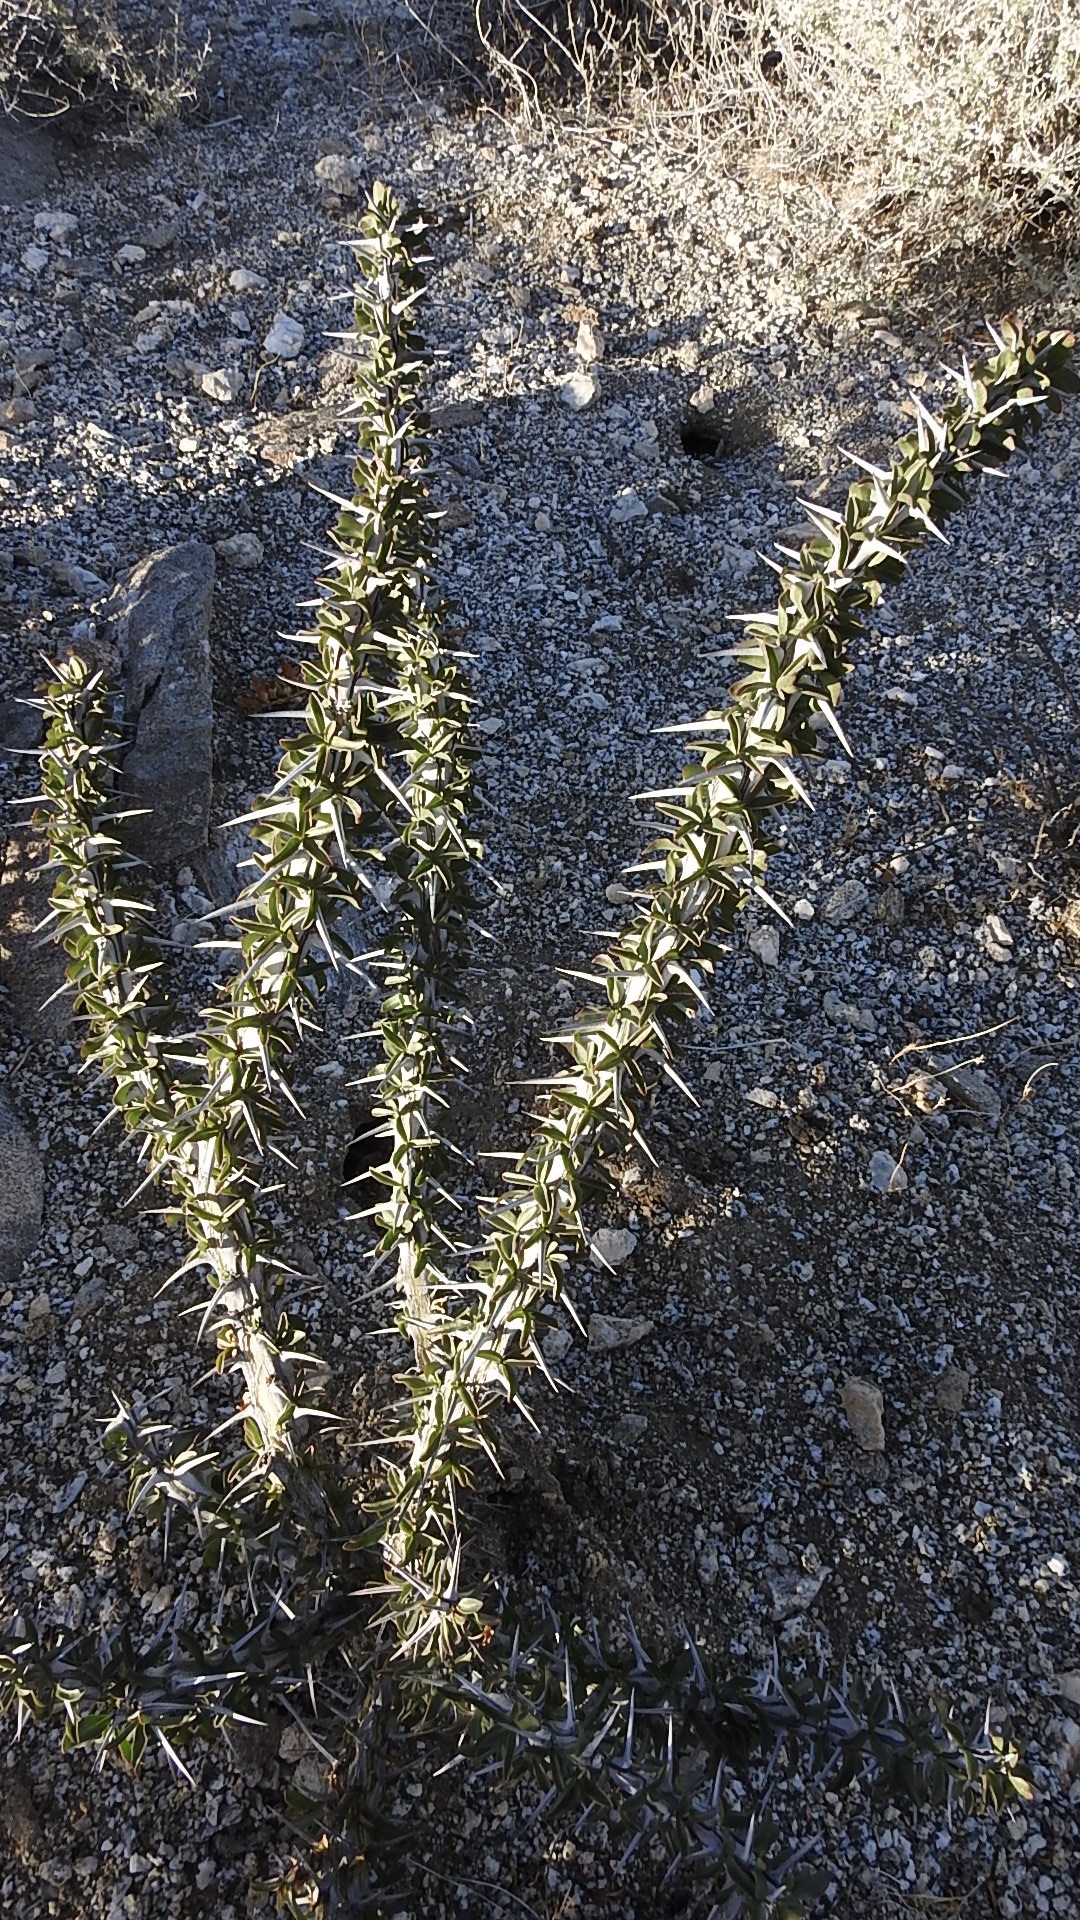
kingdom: Plantae
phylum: Tracheophyta
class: Magnoliopsida
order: Ericales
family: Fouquieriaceae
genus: Fouquieria
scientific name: Fouquieria splendens
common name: Vine-cactus
